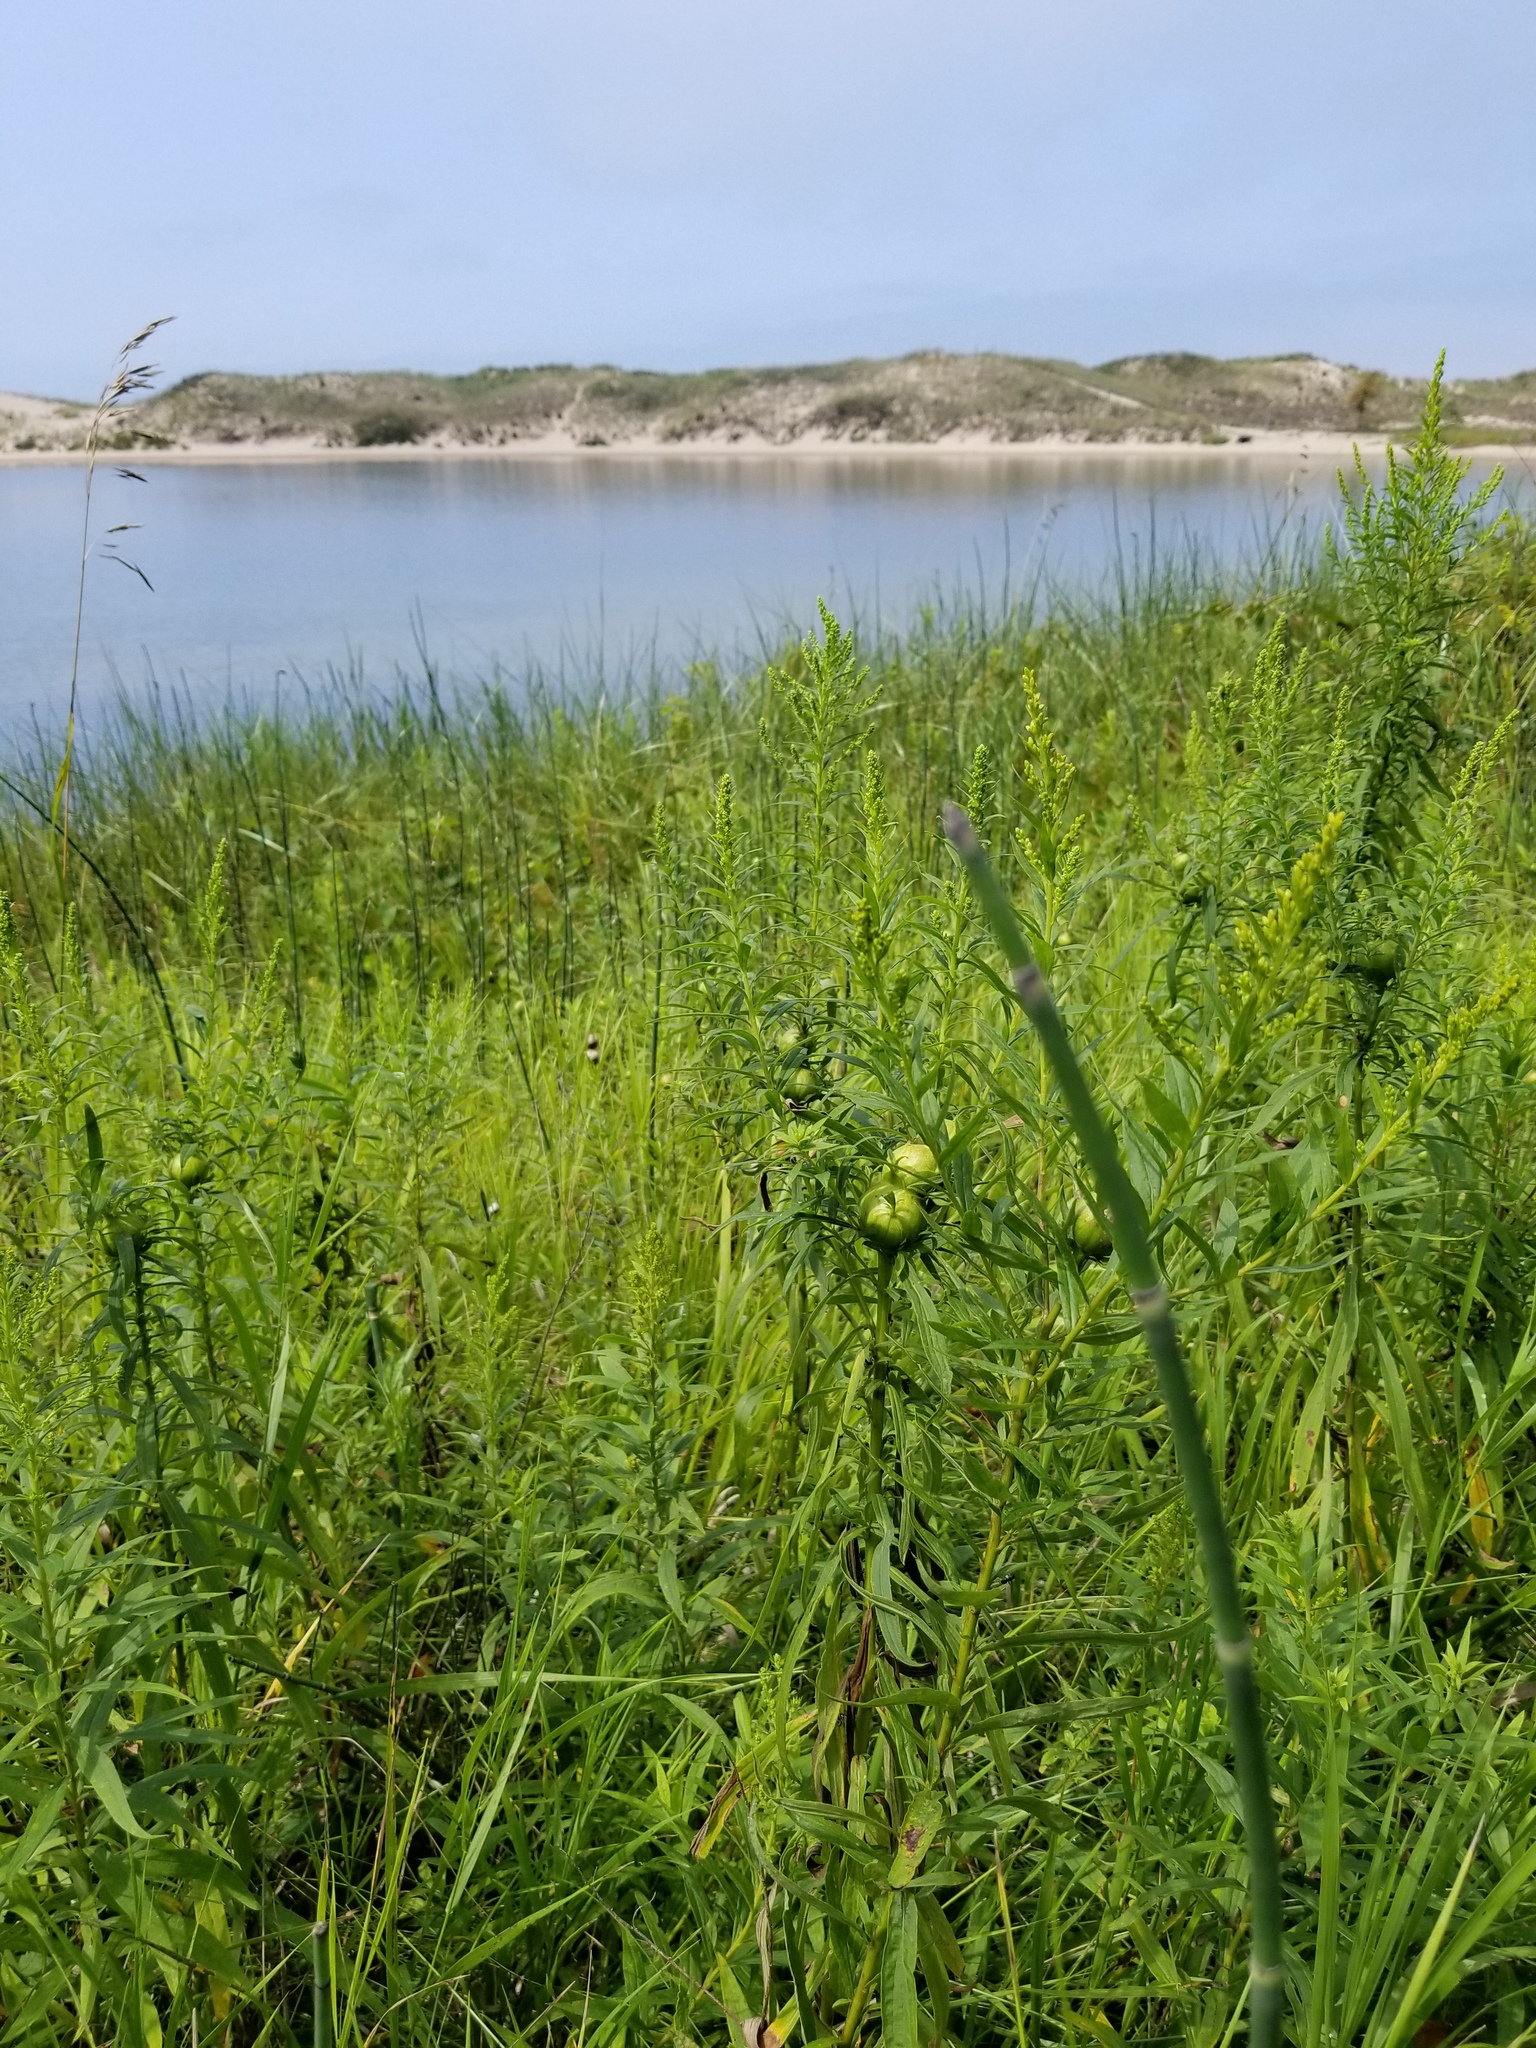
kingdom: Animalia
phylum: Arthropoda
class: Insecta
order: Diptera
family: Tephritidae
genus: Eurosta
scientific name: Eurosta solidaginis
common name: Goldenrod gall fly
